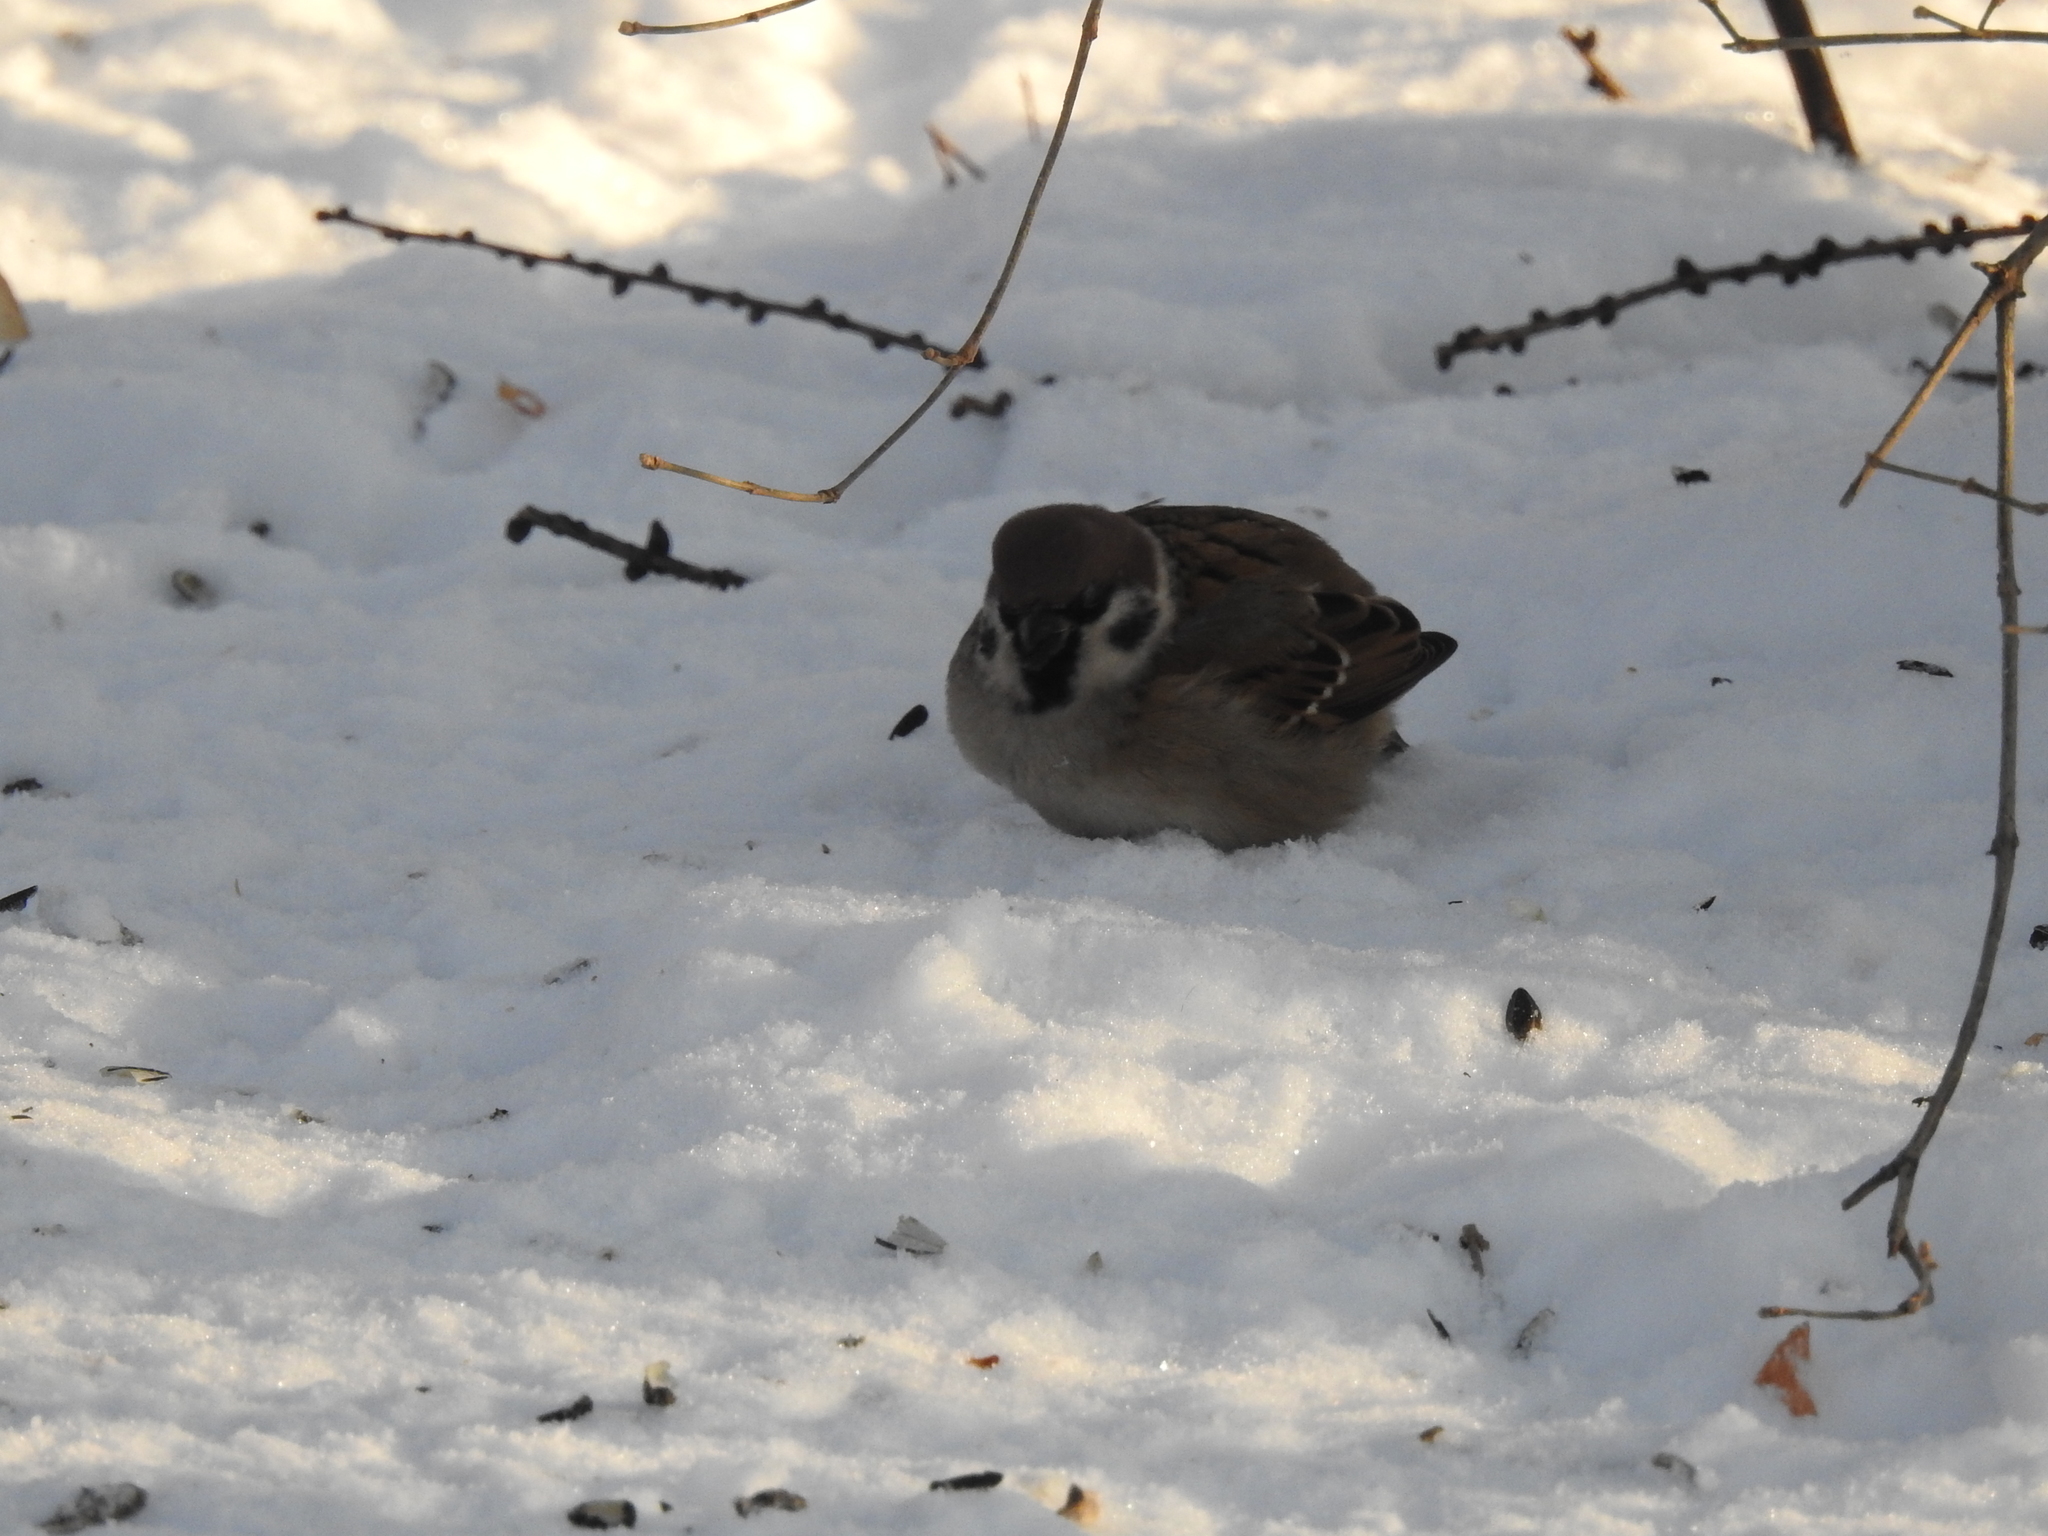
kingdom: Animalia
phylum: Chordata
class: Aves
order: Passeriformes
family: Passeridae
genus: Passer
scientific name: Passer montanus
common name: Eurasian tree sparrow
